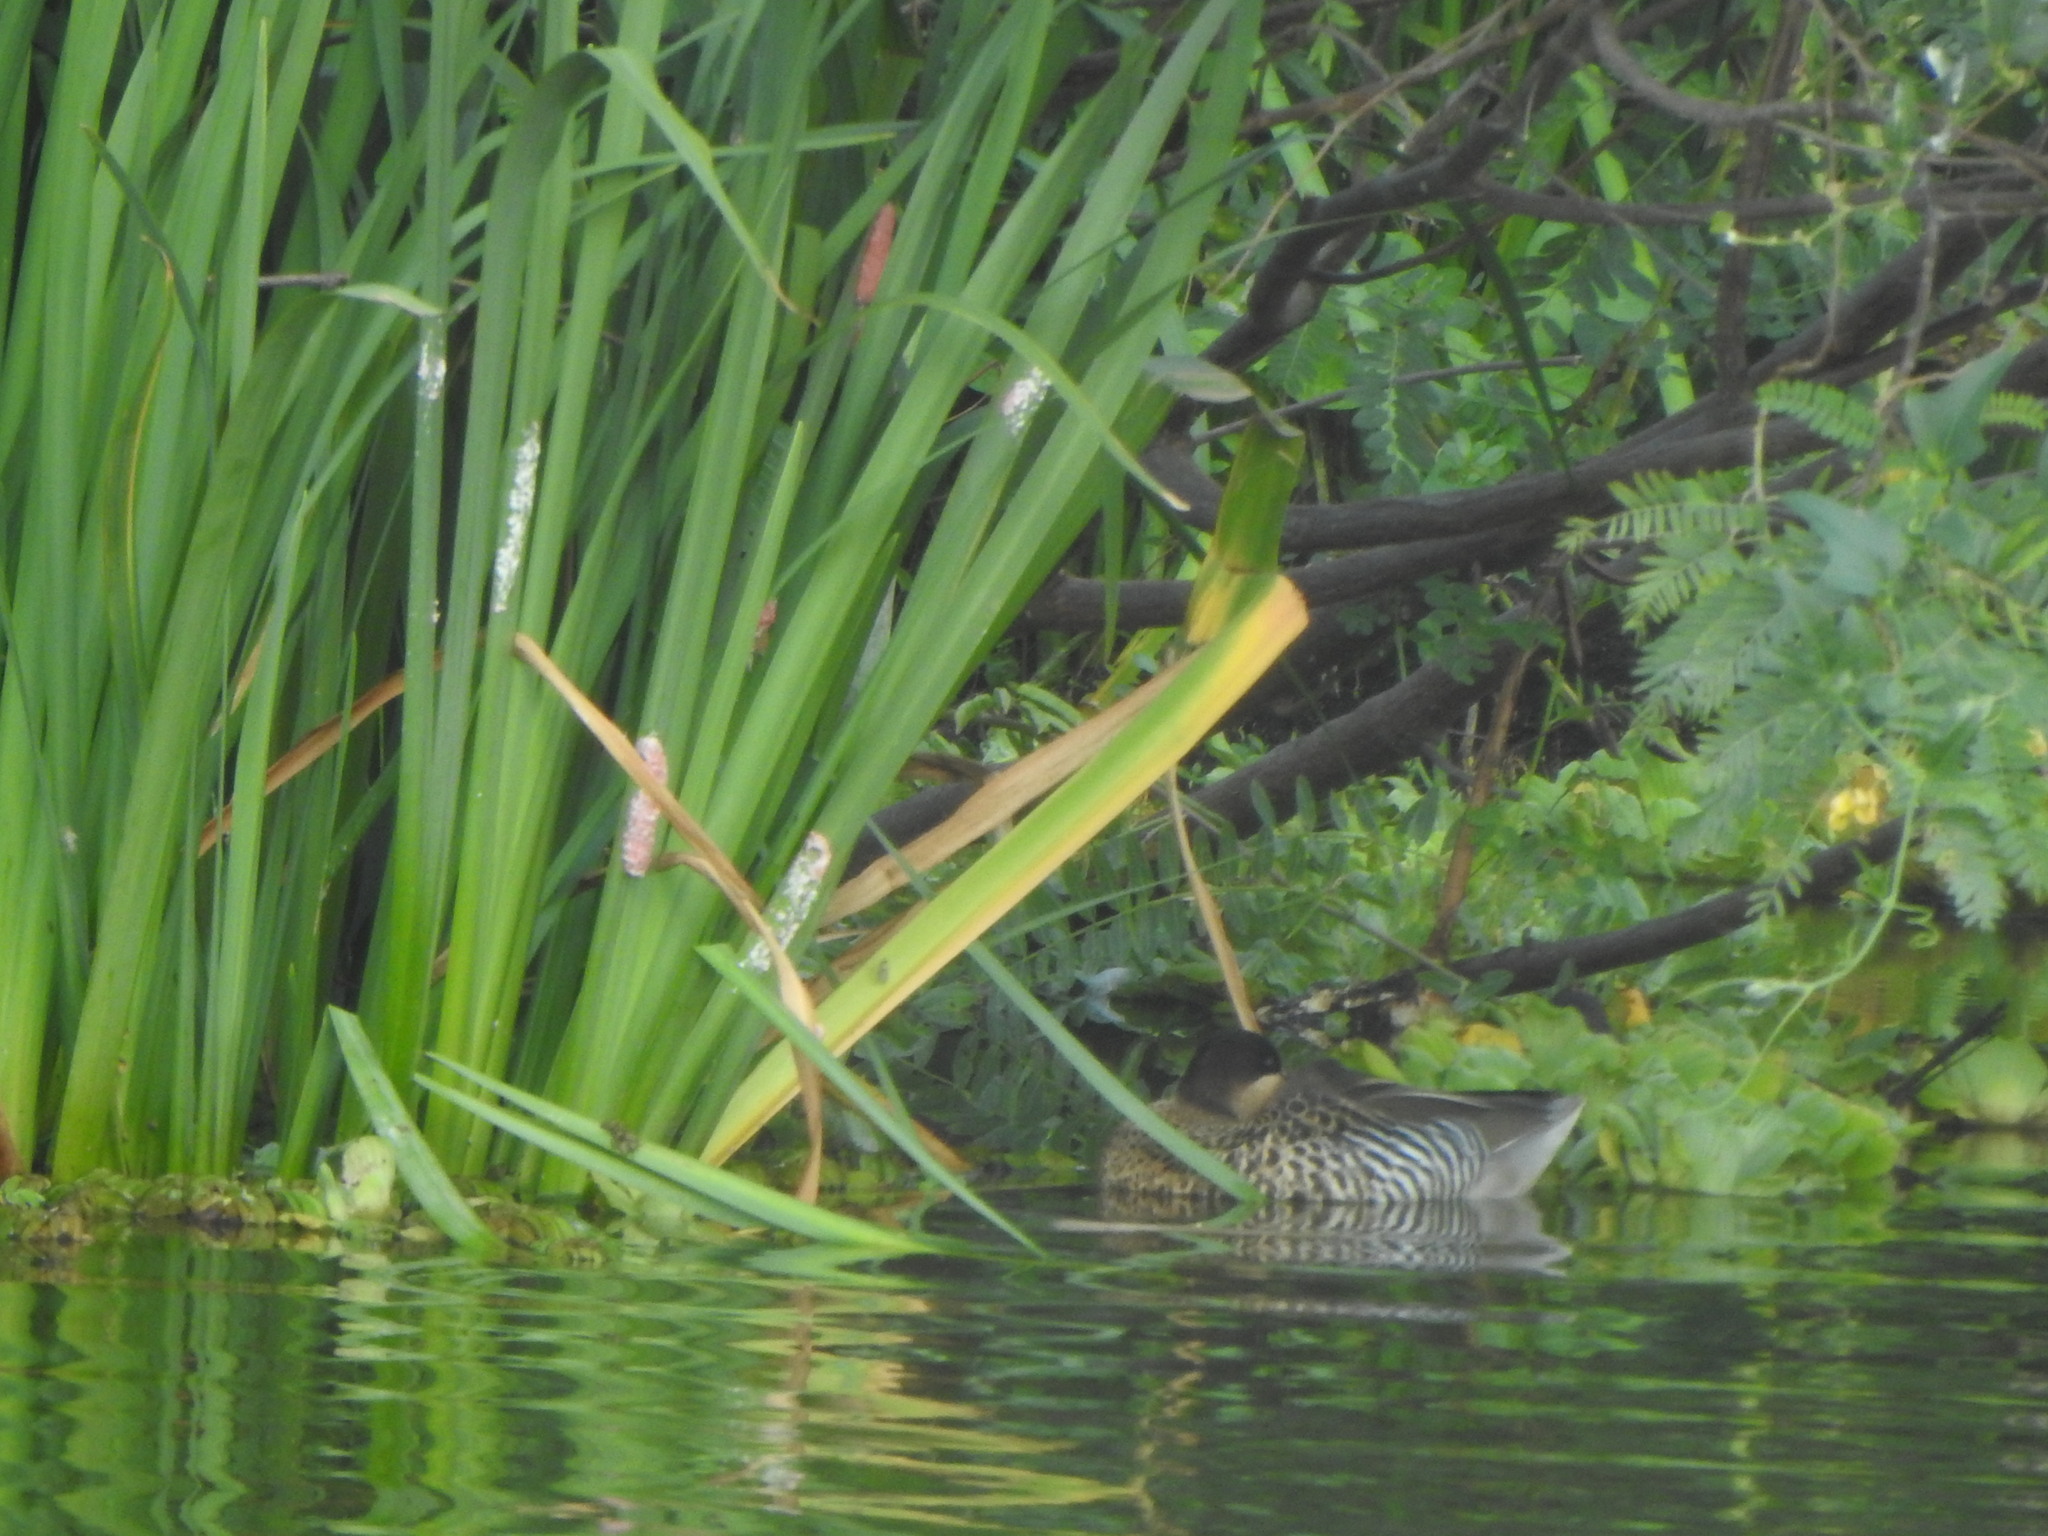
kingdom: Animalia
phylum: Chordata
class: Aves
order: Anseriformes
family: Anatidae
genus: Spatula
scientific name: Spatula versicolor
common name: Silver teal
